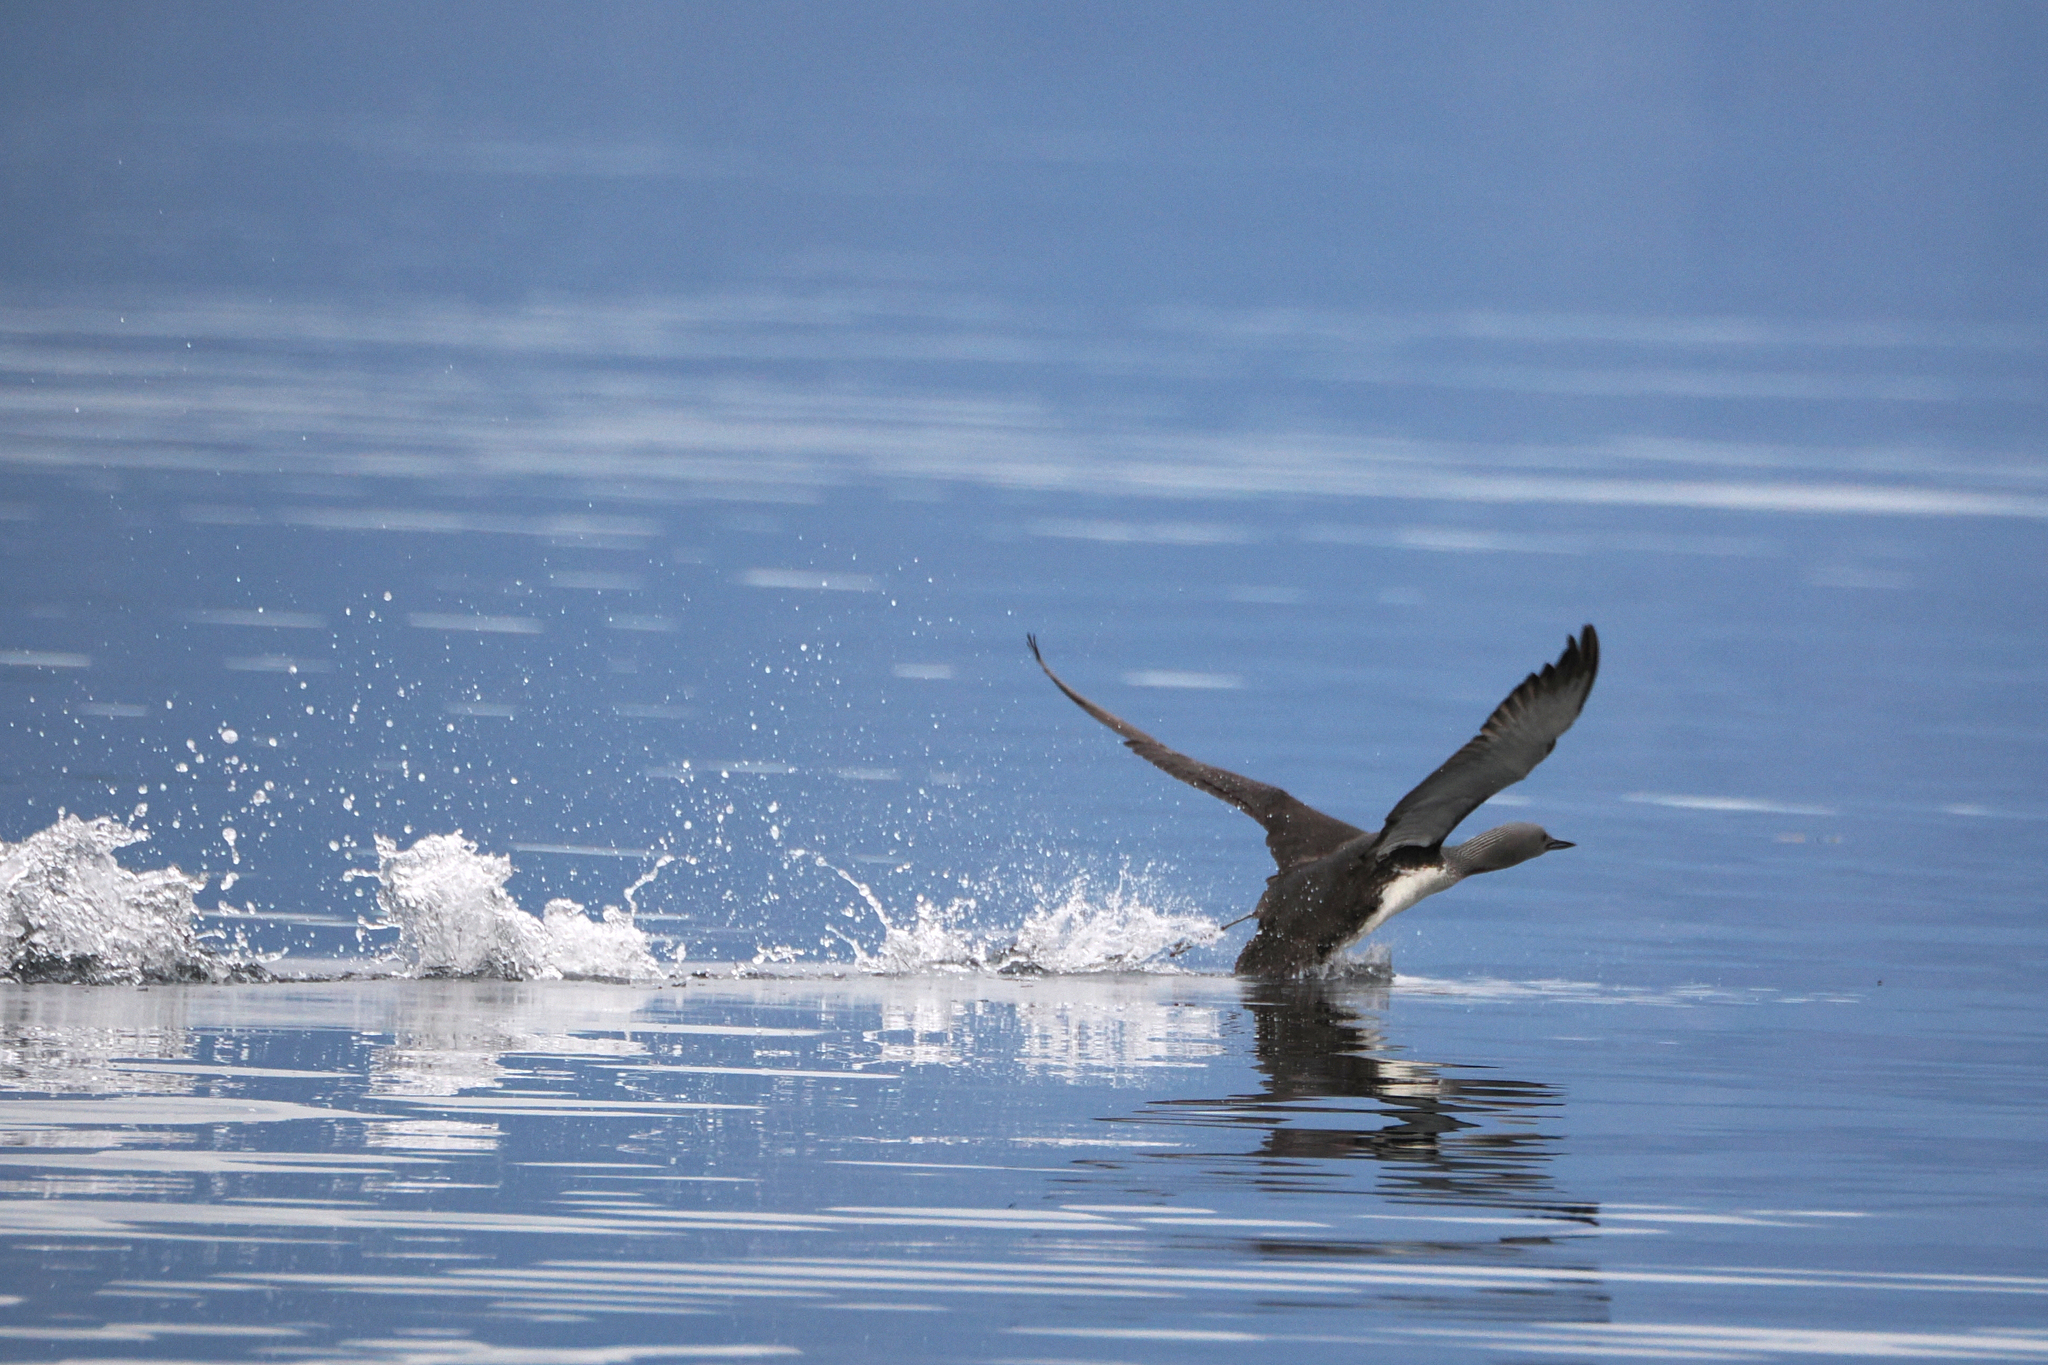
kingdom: Animalia
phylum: Chordata
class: Aves
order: Gaviiformes
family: Gaviidae
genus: Gavia
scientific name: Gavia stellata
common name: Red-throated loon
